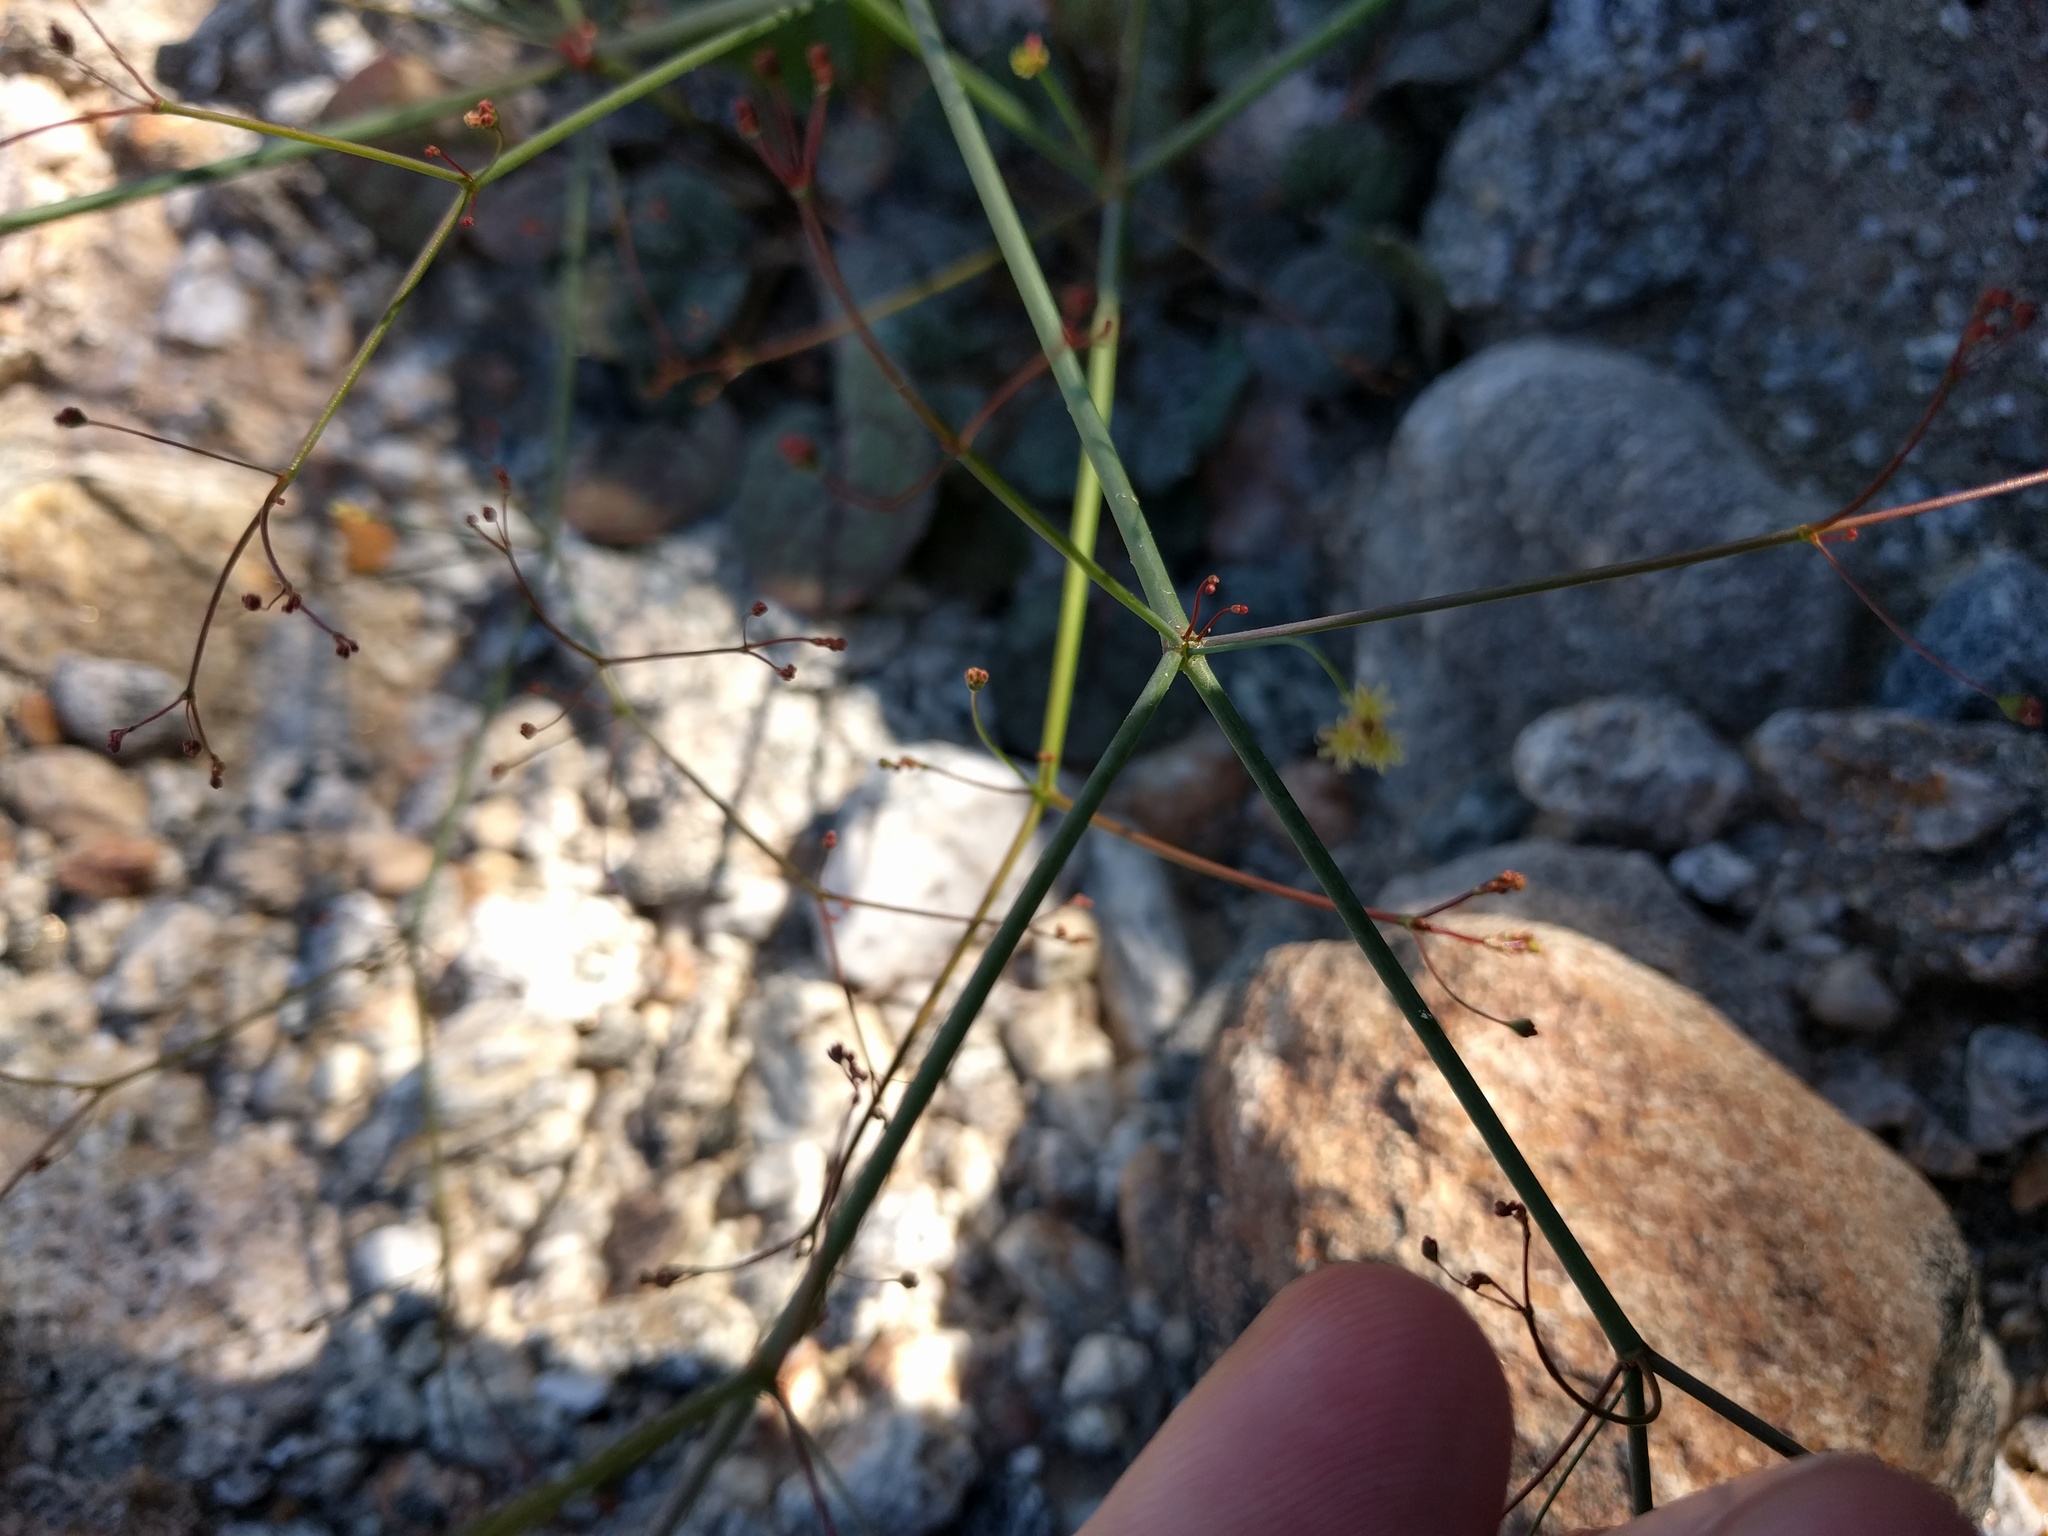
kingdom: Plantae
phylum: Tracheophyta
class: Magnoliopsida
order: Caryophyllales
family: Polygonaceae
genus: Eriogonum
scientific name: Eriogonum inflatum
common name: Desert trumpet
